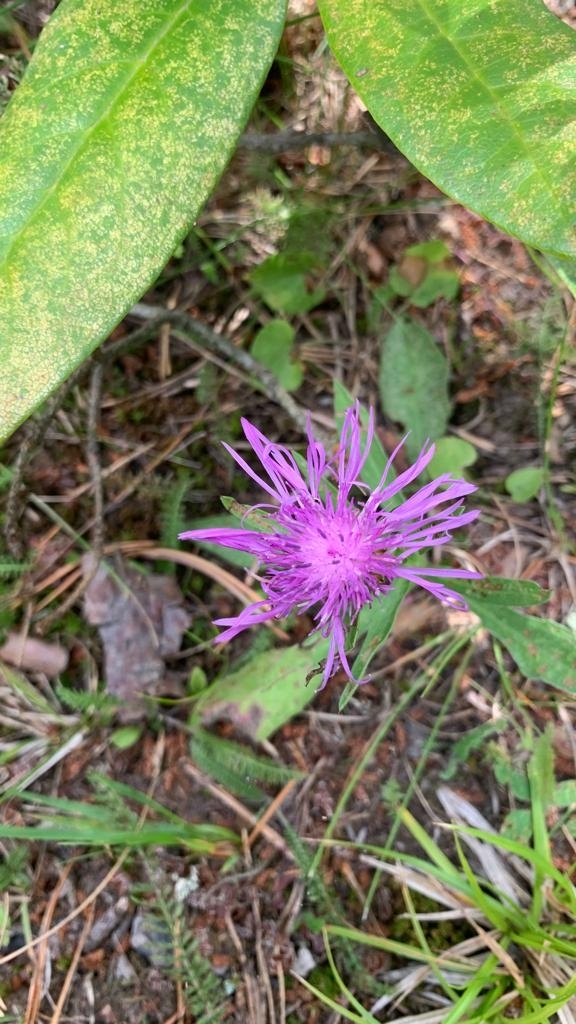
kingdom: Plantae
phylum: Tracheophyta
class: Magnoliopsida
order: Asterales
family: Asteraceae
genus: Centaurea
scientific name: Centaurea jacea
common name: Brown knapweed
